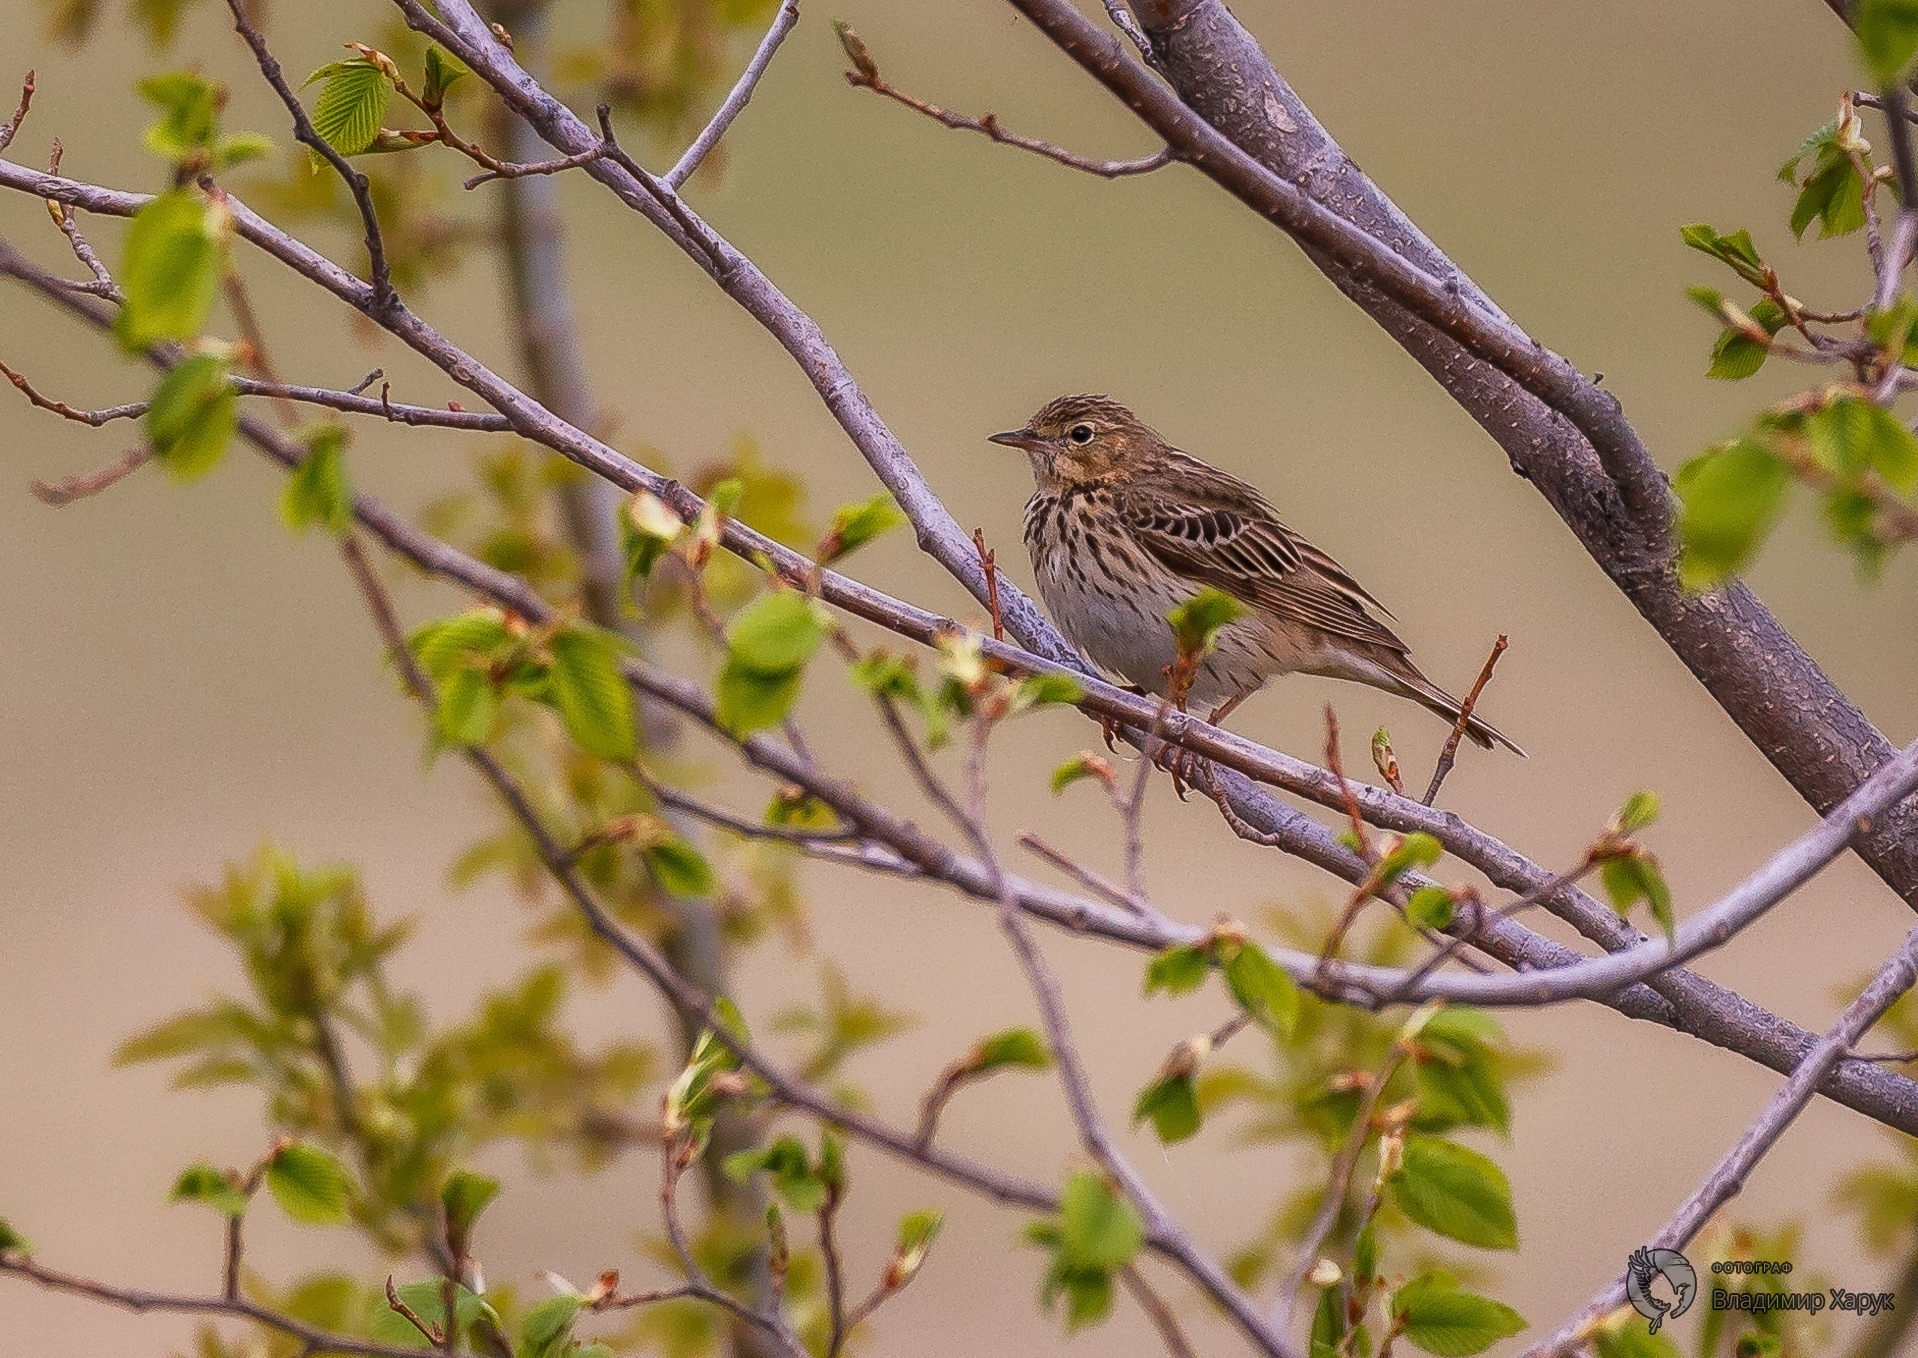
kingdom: Animalia
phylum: Chordata
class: Aves
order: Passeriformes
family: Motacillidae
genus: Anthus
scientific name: Anthus trivialis
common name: Tree pipit
